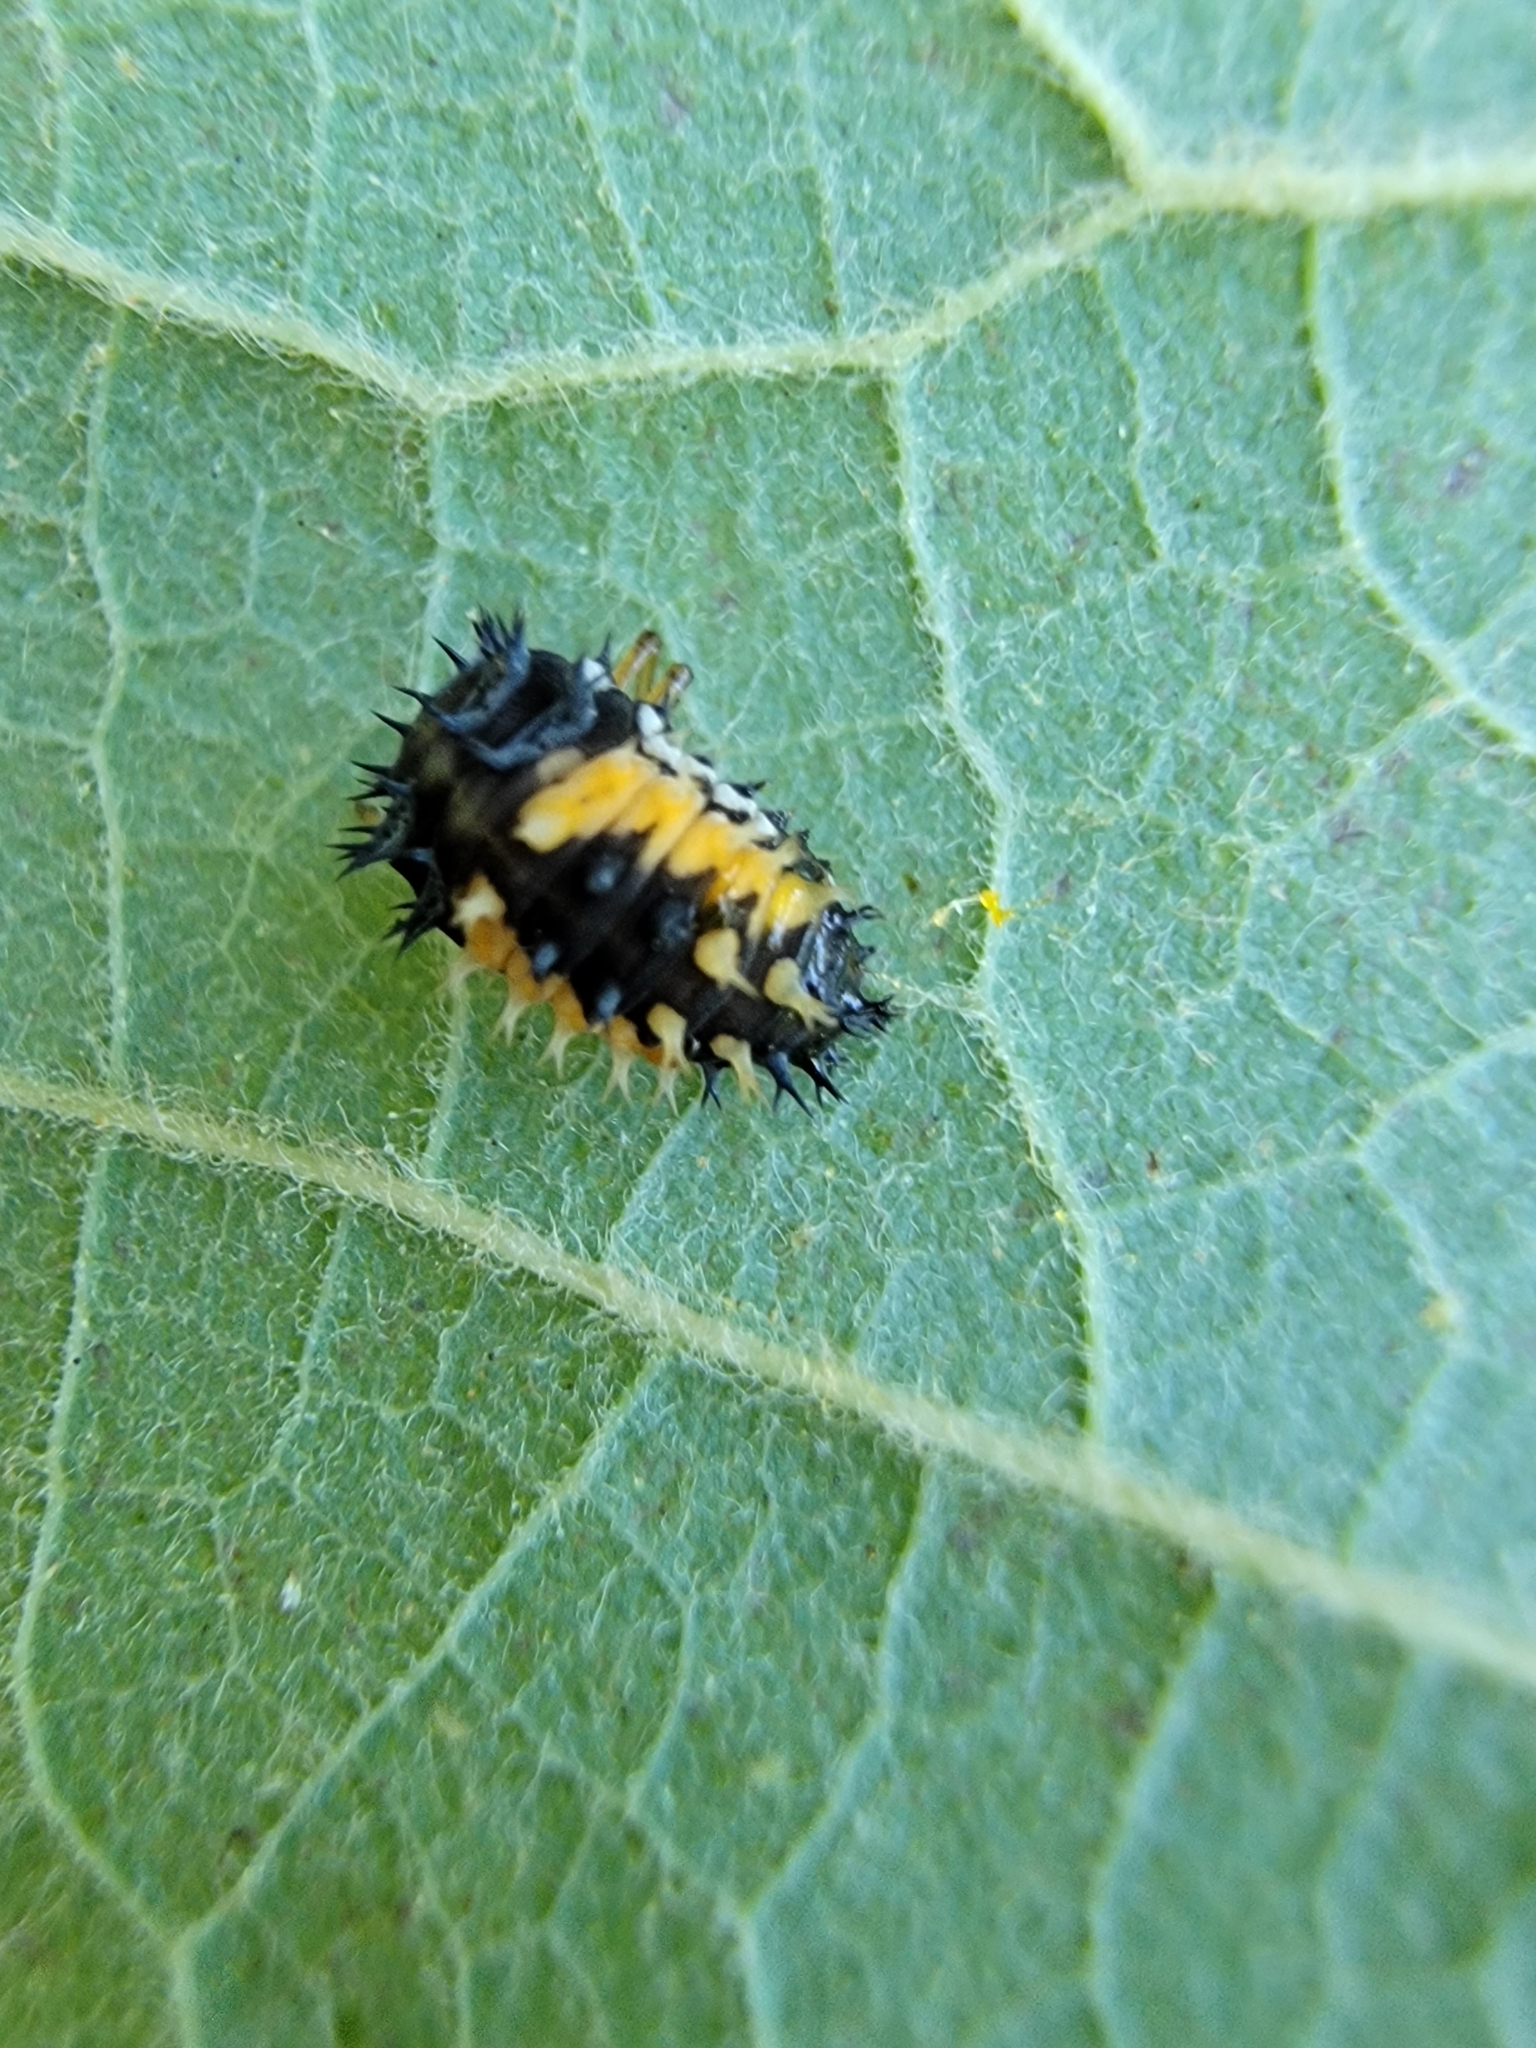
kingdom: Animalia
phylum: Arthropoda
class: Insecta
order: Coleoptera
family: Coccinellidae
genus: Harmonia
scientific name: Harmonia axyridis
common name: Harlequin ladybird
